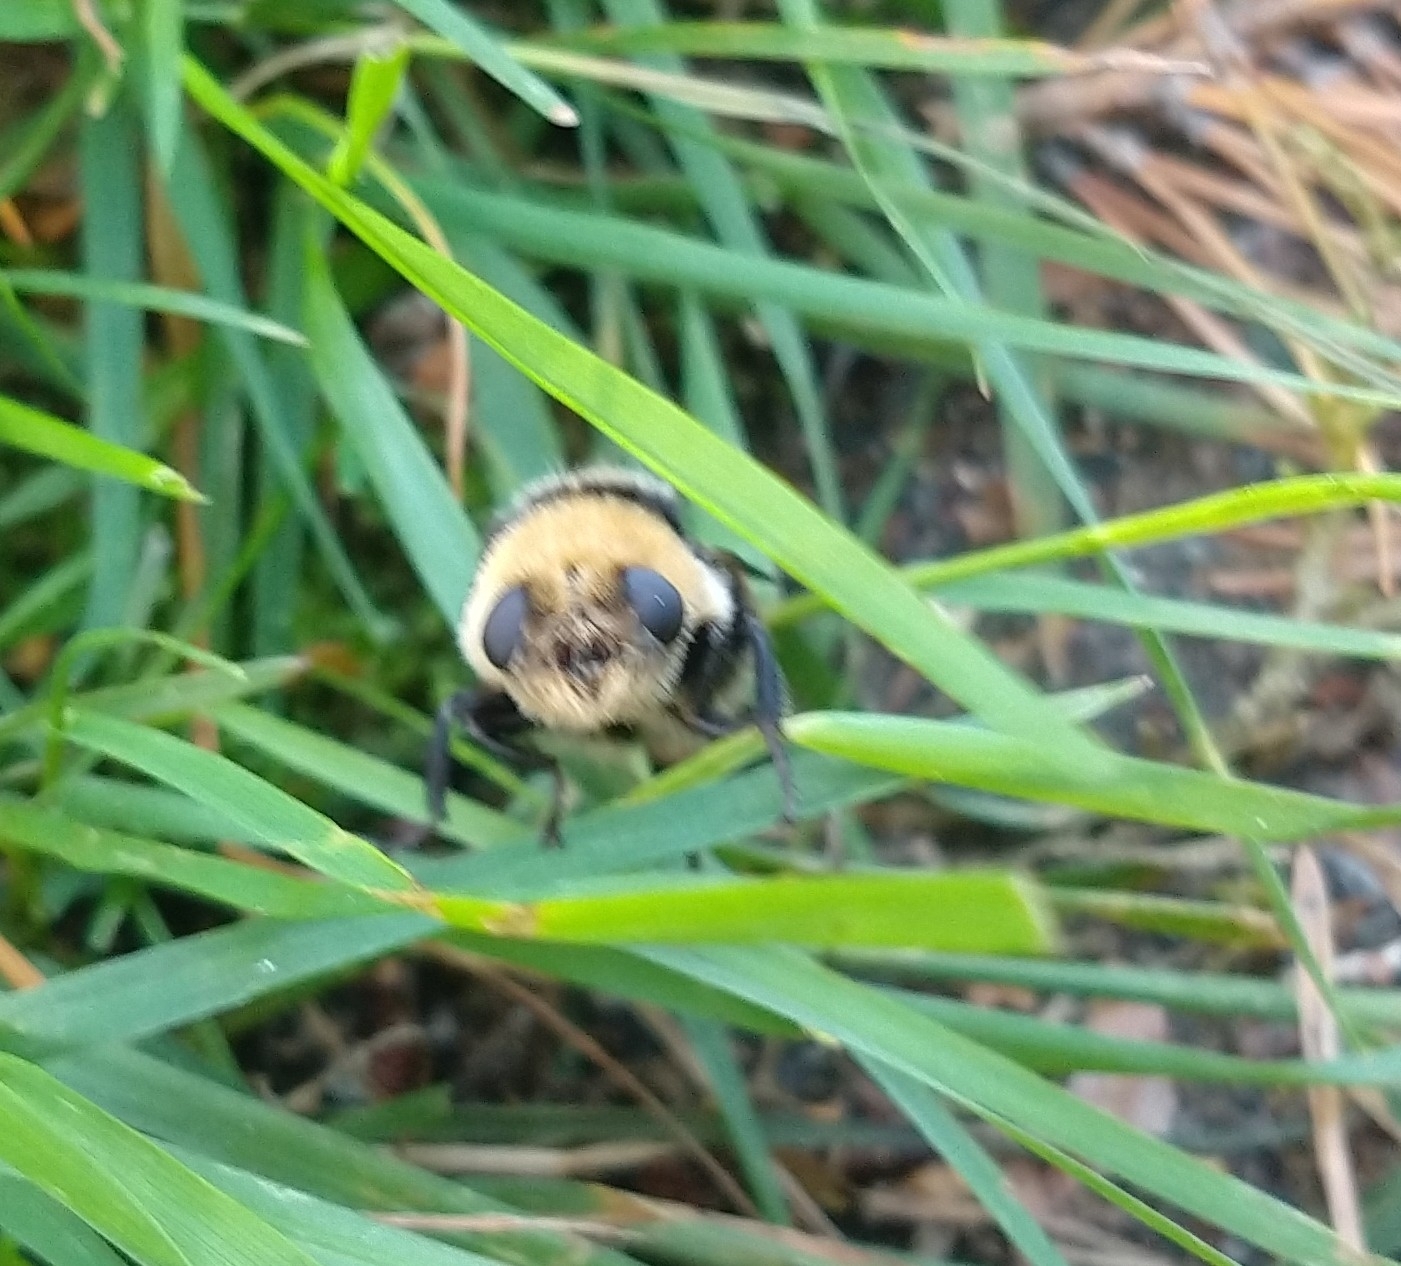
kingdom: Animalia
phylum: Arthropoda
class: Insecta
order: Diptera
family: Oestridae
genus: Cephenemyia
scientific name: Cephenemyia ulrichii
